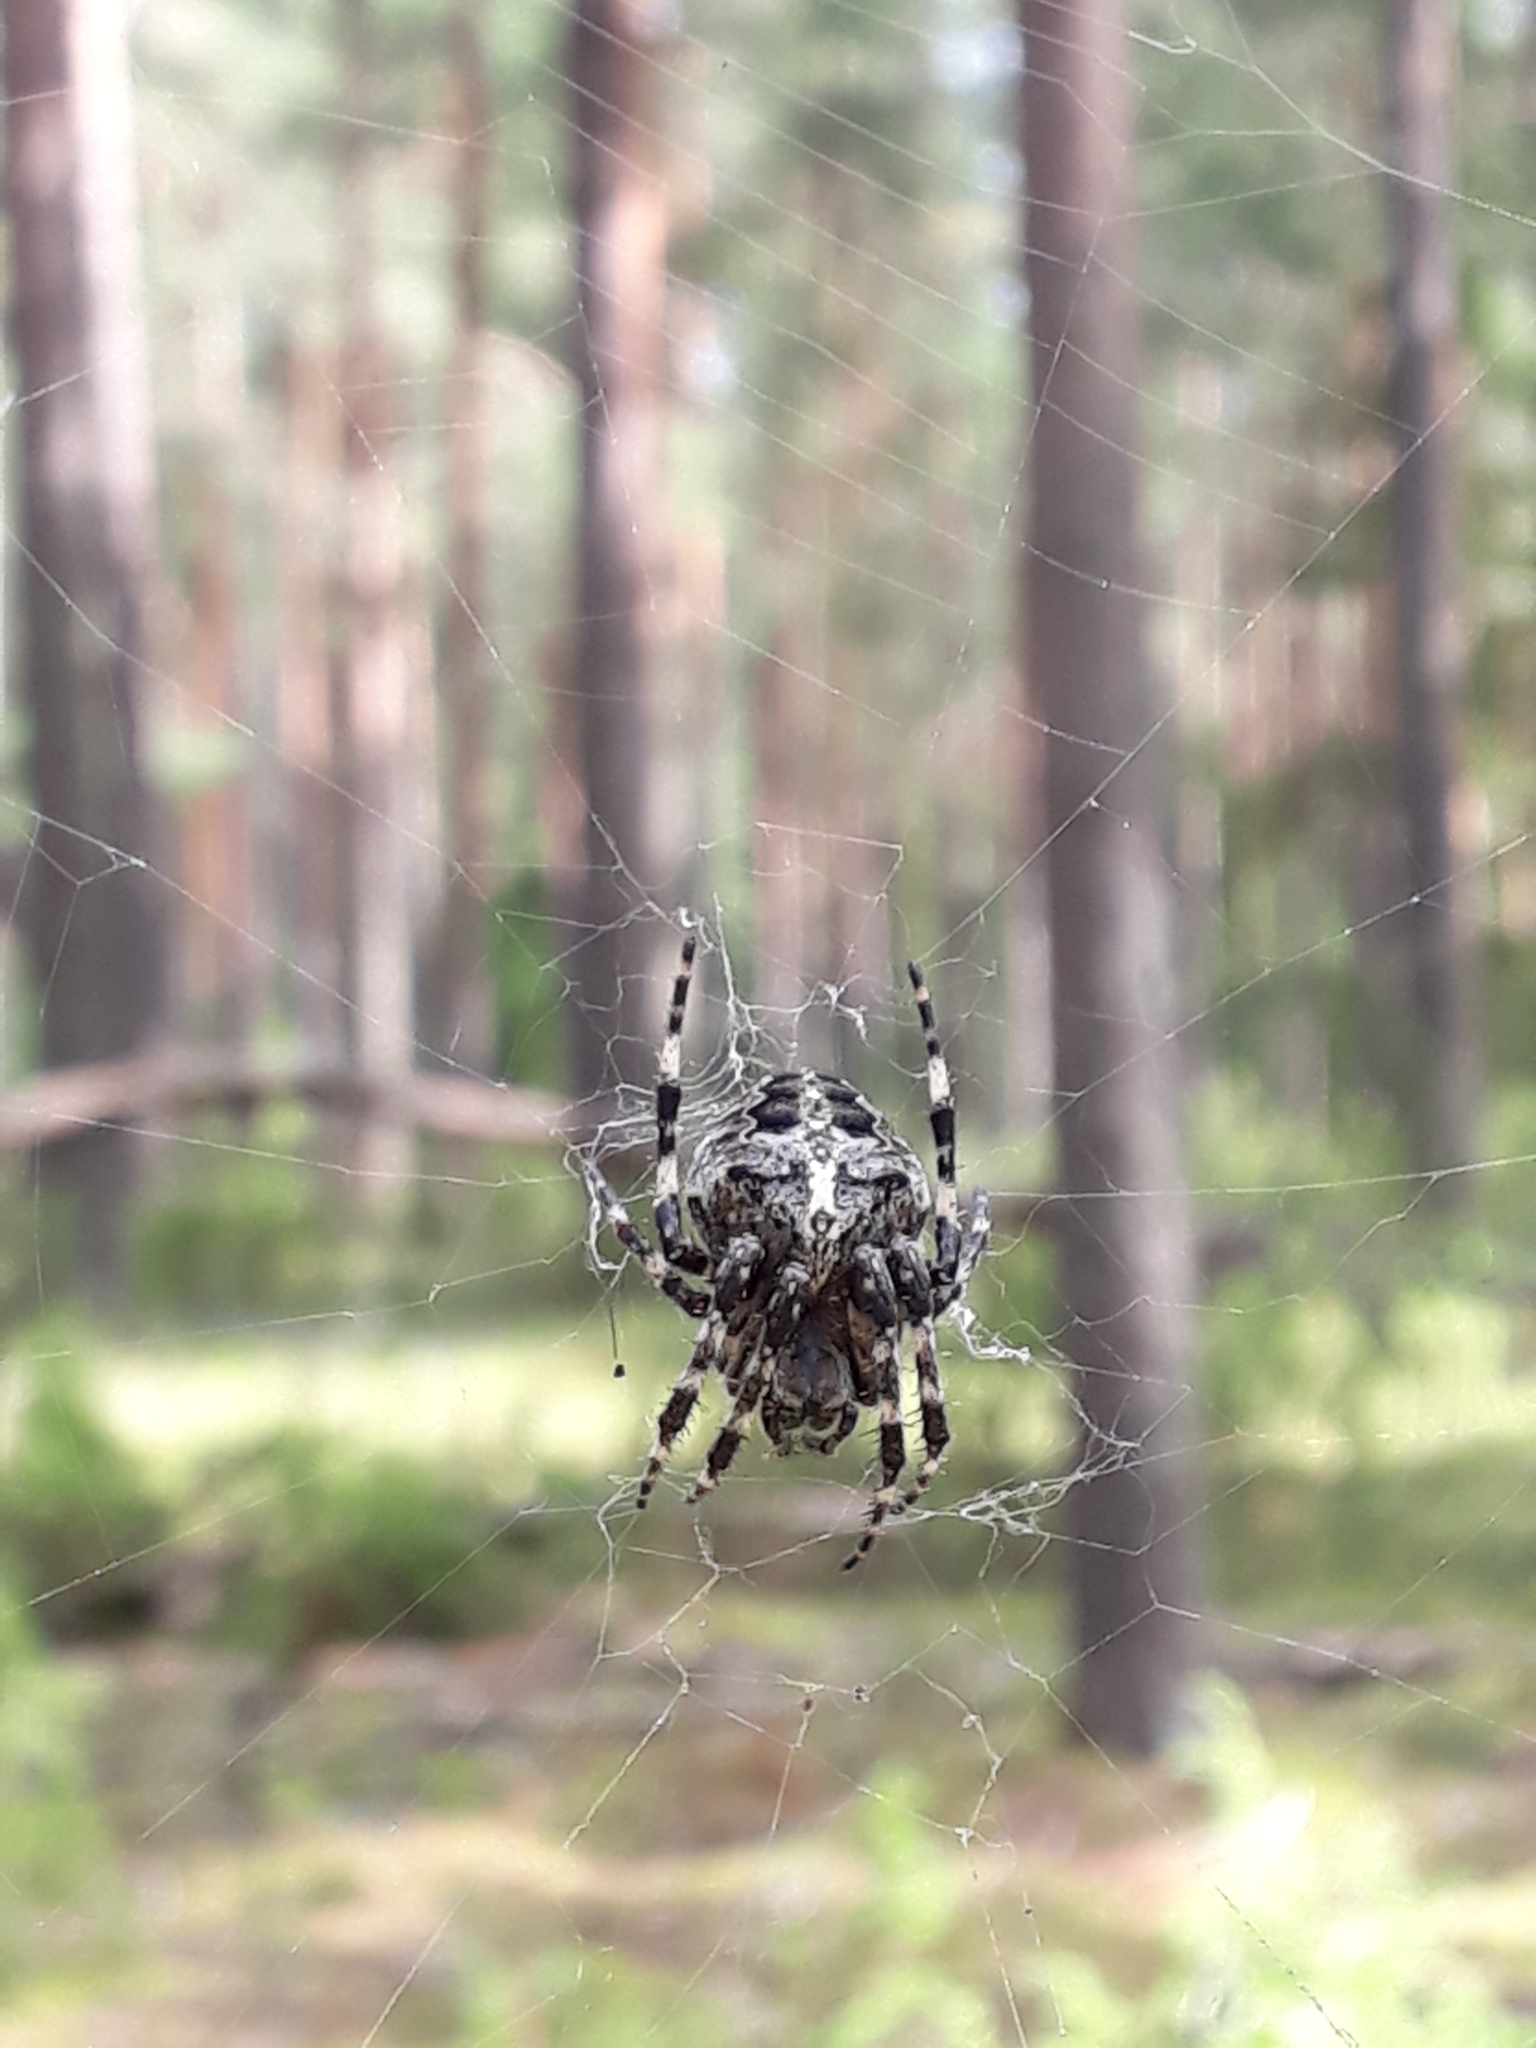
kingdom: Animalia
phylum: Arthropoda
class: Arachnida
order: Araneae
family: Araneidae
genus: Araneus
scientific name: Araneus angulatus
